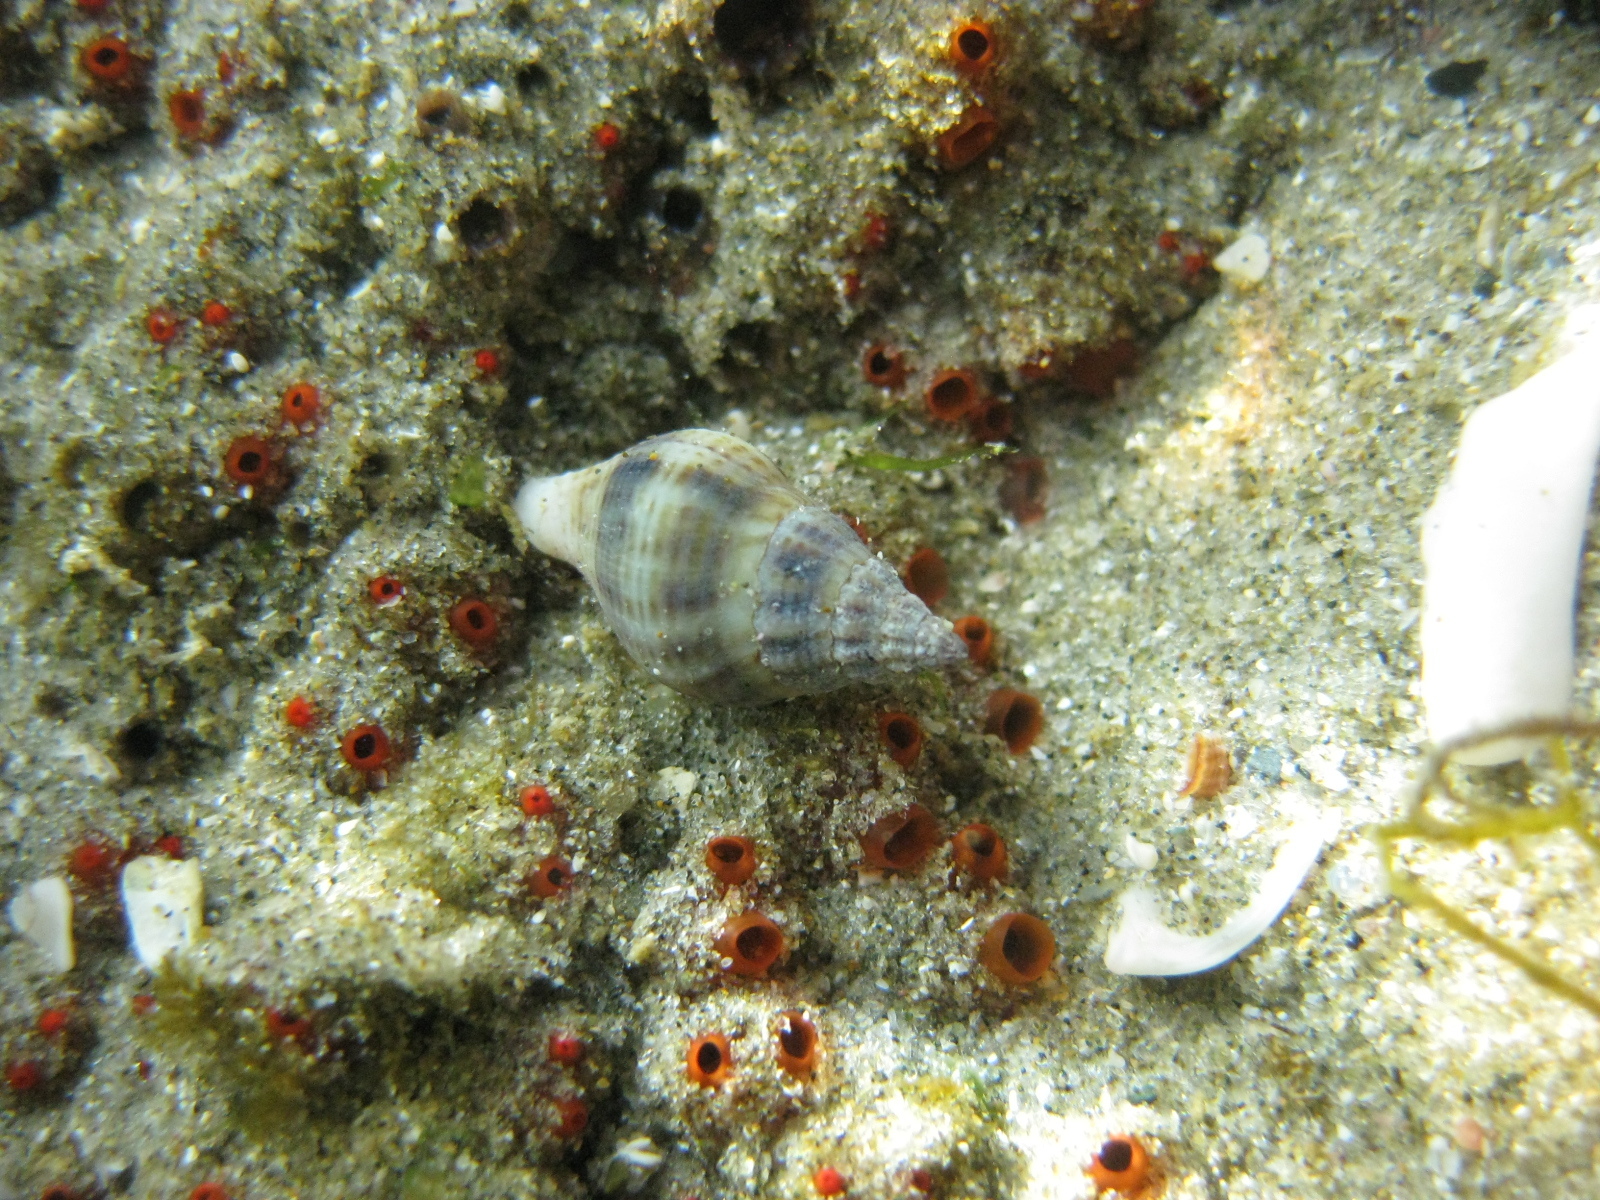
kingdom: Animalia
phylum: Mollusca
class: Gastropoda
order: Neogastropoda
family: Tudiclidae
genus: Buccinulum
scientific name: Buccinulum vittatum
